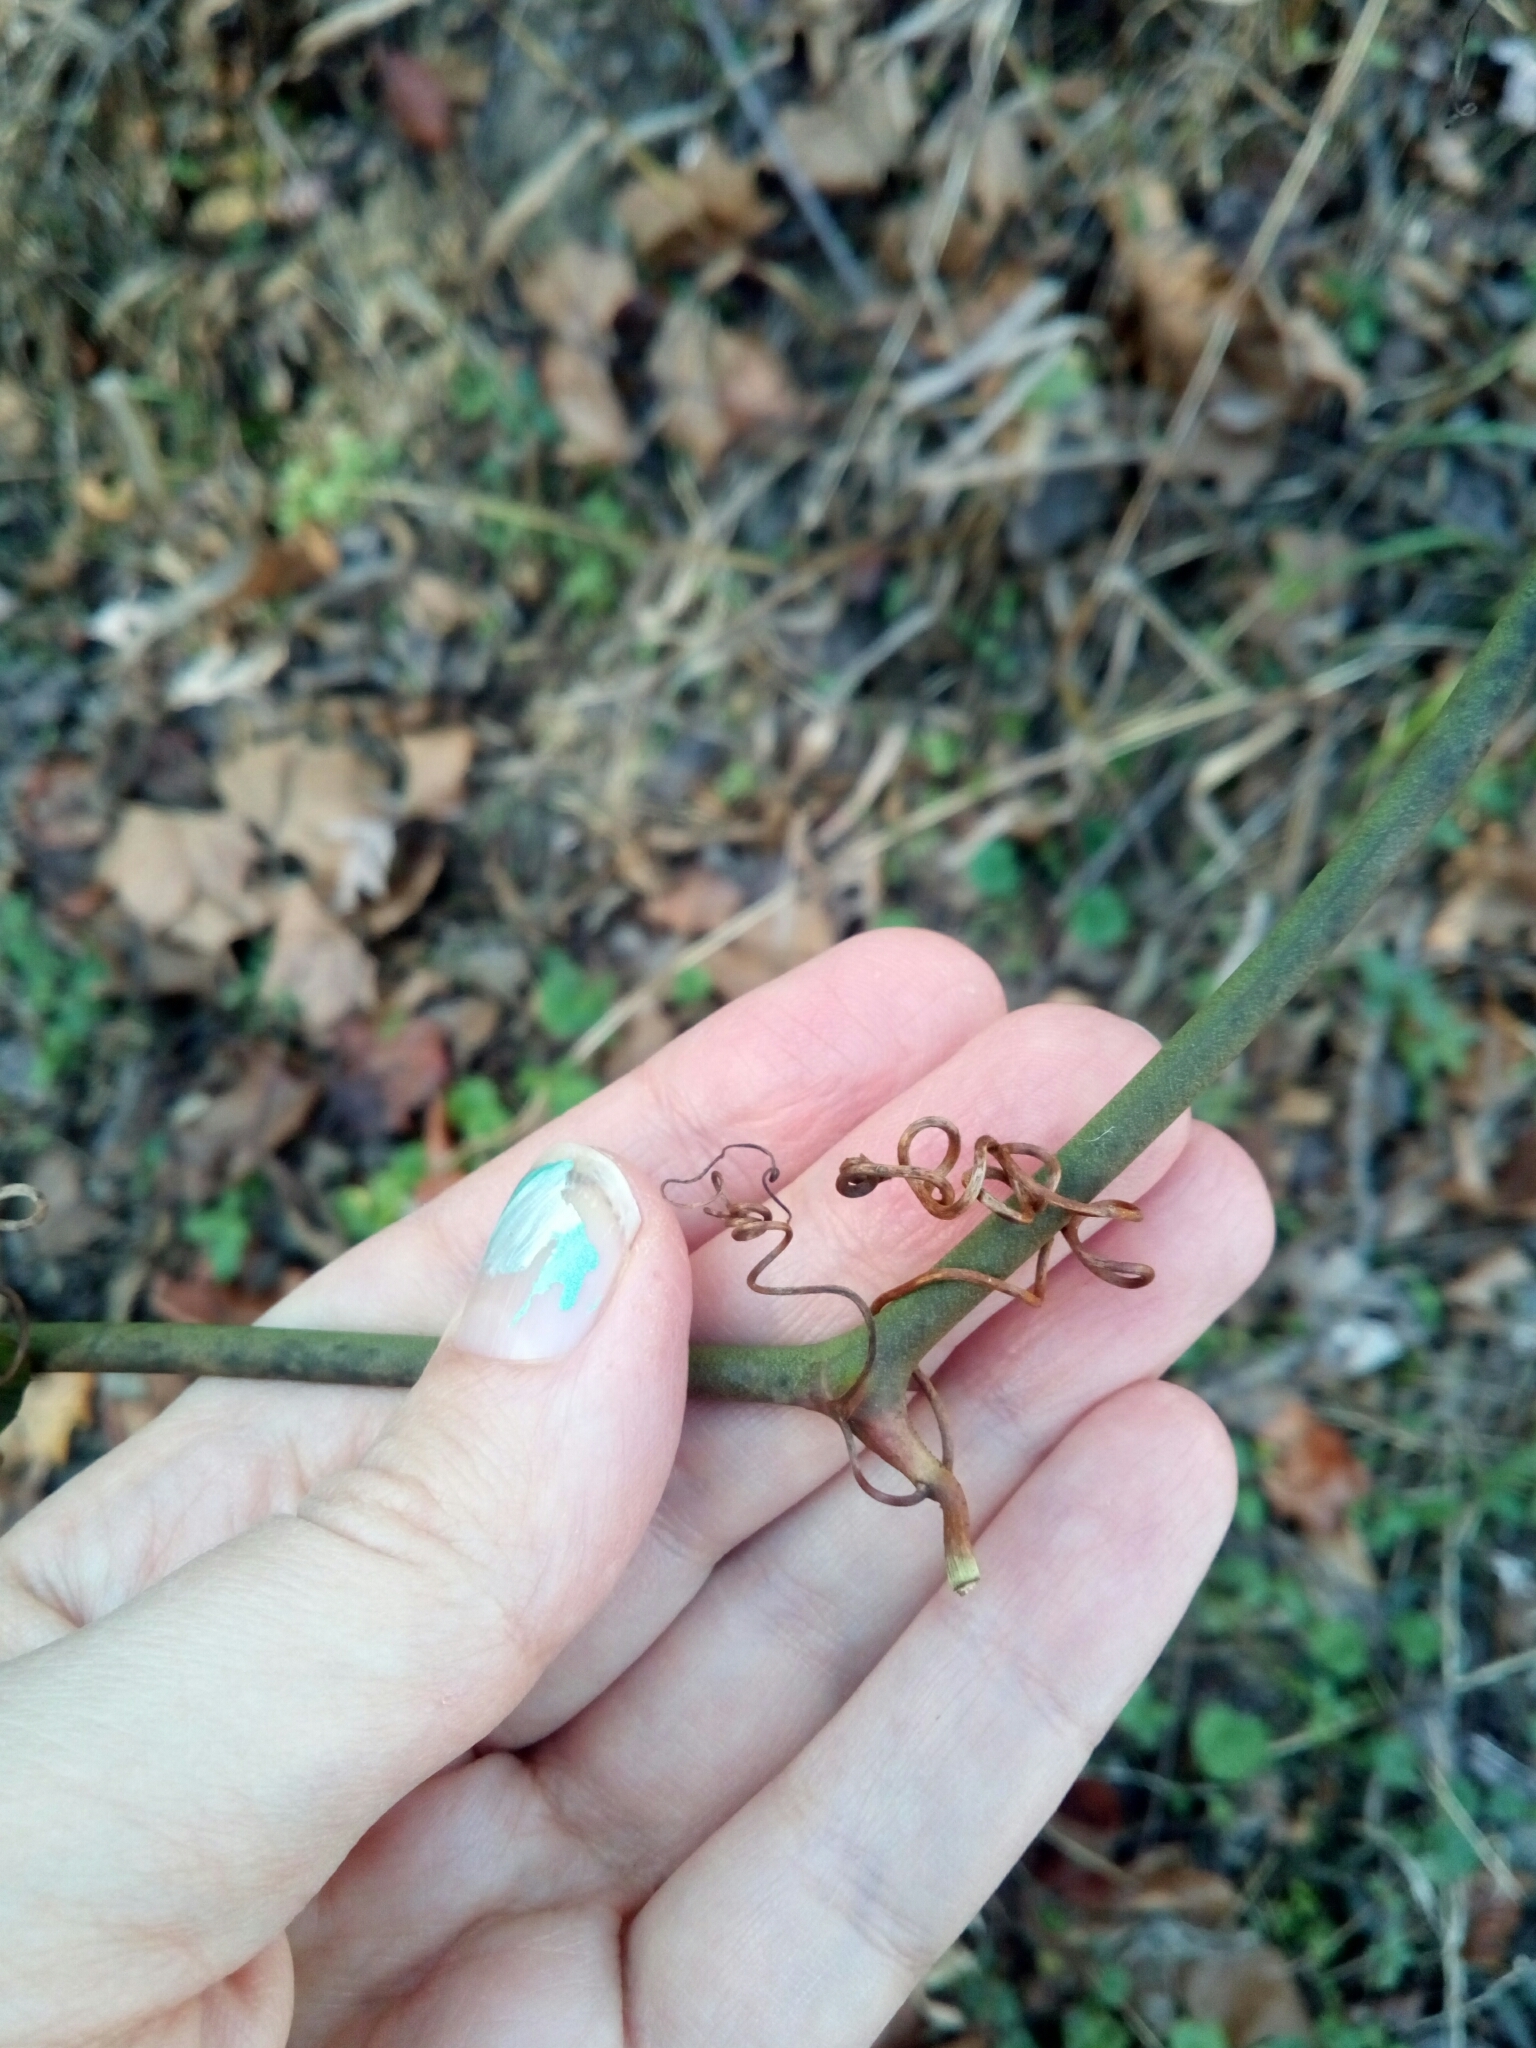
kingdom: Plantae
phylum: Tracheophyta
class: Liliopsida
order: Liliales
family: Smilacaceae
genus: Smilax
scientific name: Smilax bona-nox
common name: Catbrier
